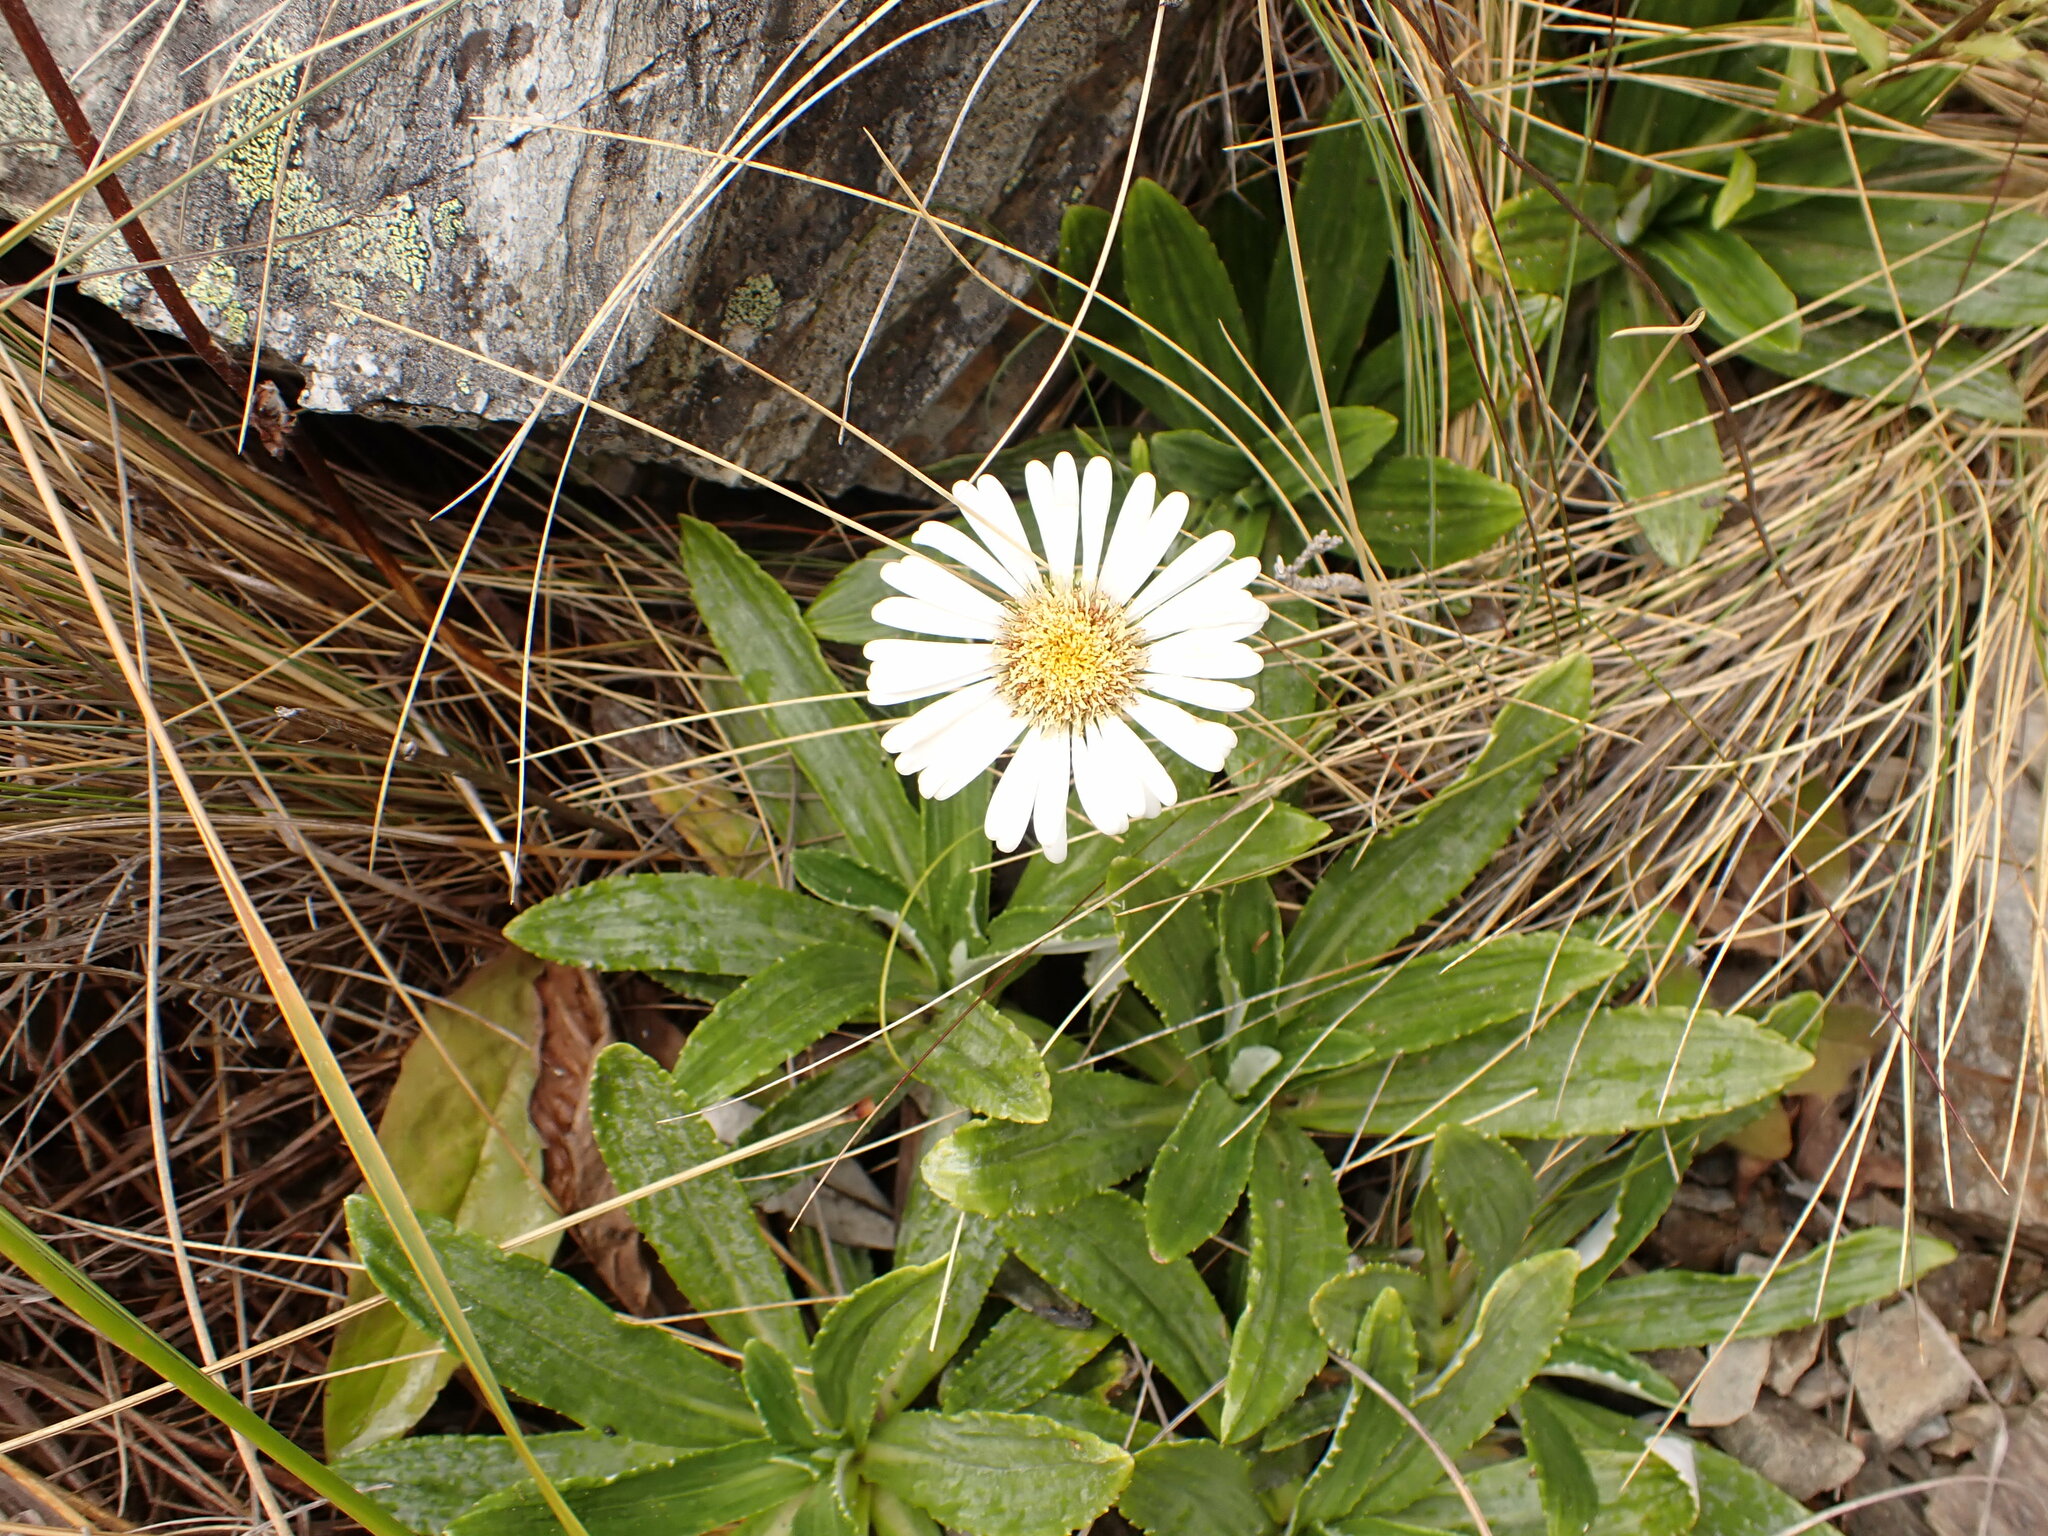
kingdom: Plantae
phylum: Tracheophyta
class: Magnoliopsida
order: Asterales
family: Asteraceae
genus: Celmisia
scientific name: Celmisia densiflora
